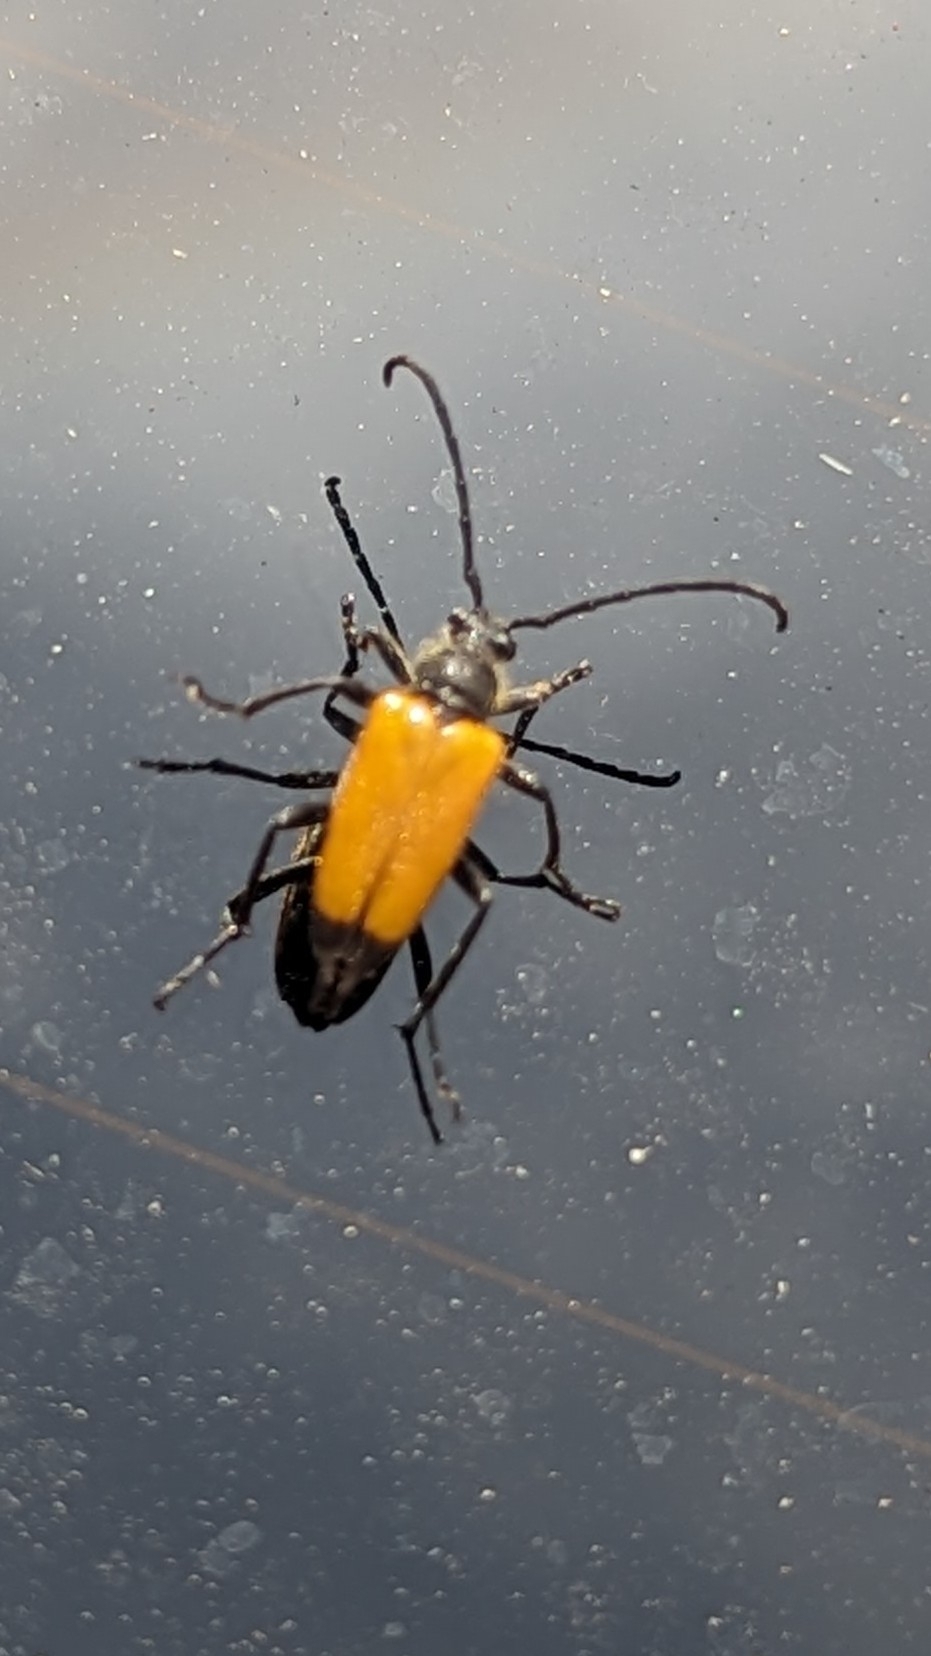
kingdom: Animalia
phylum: Arthropoda
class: Insecta
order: Coleoptera
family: Cerambycidae
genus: Paracorymbia
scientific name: Paracorymbia fulva
